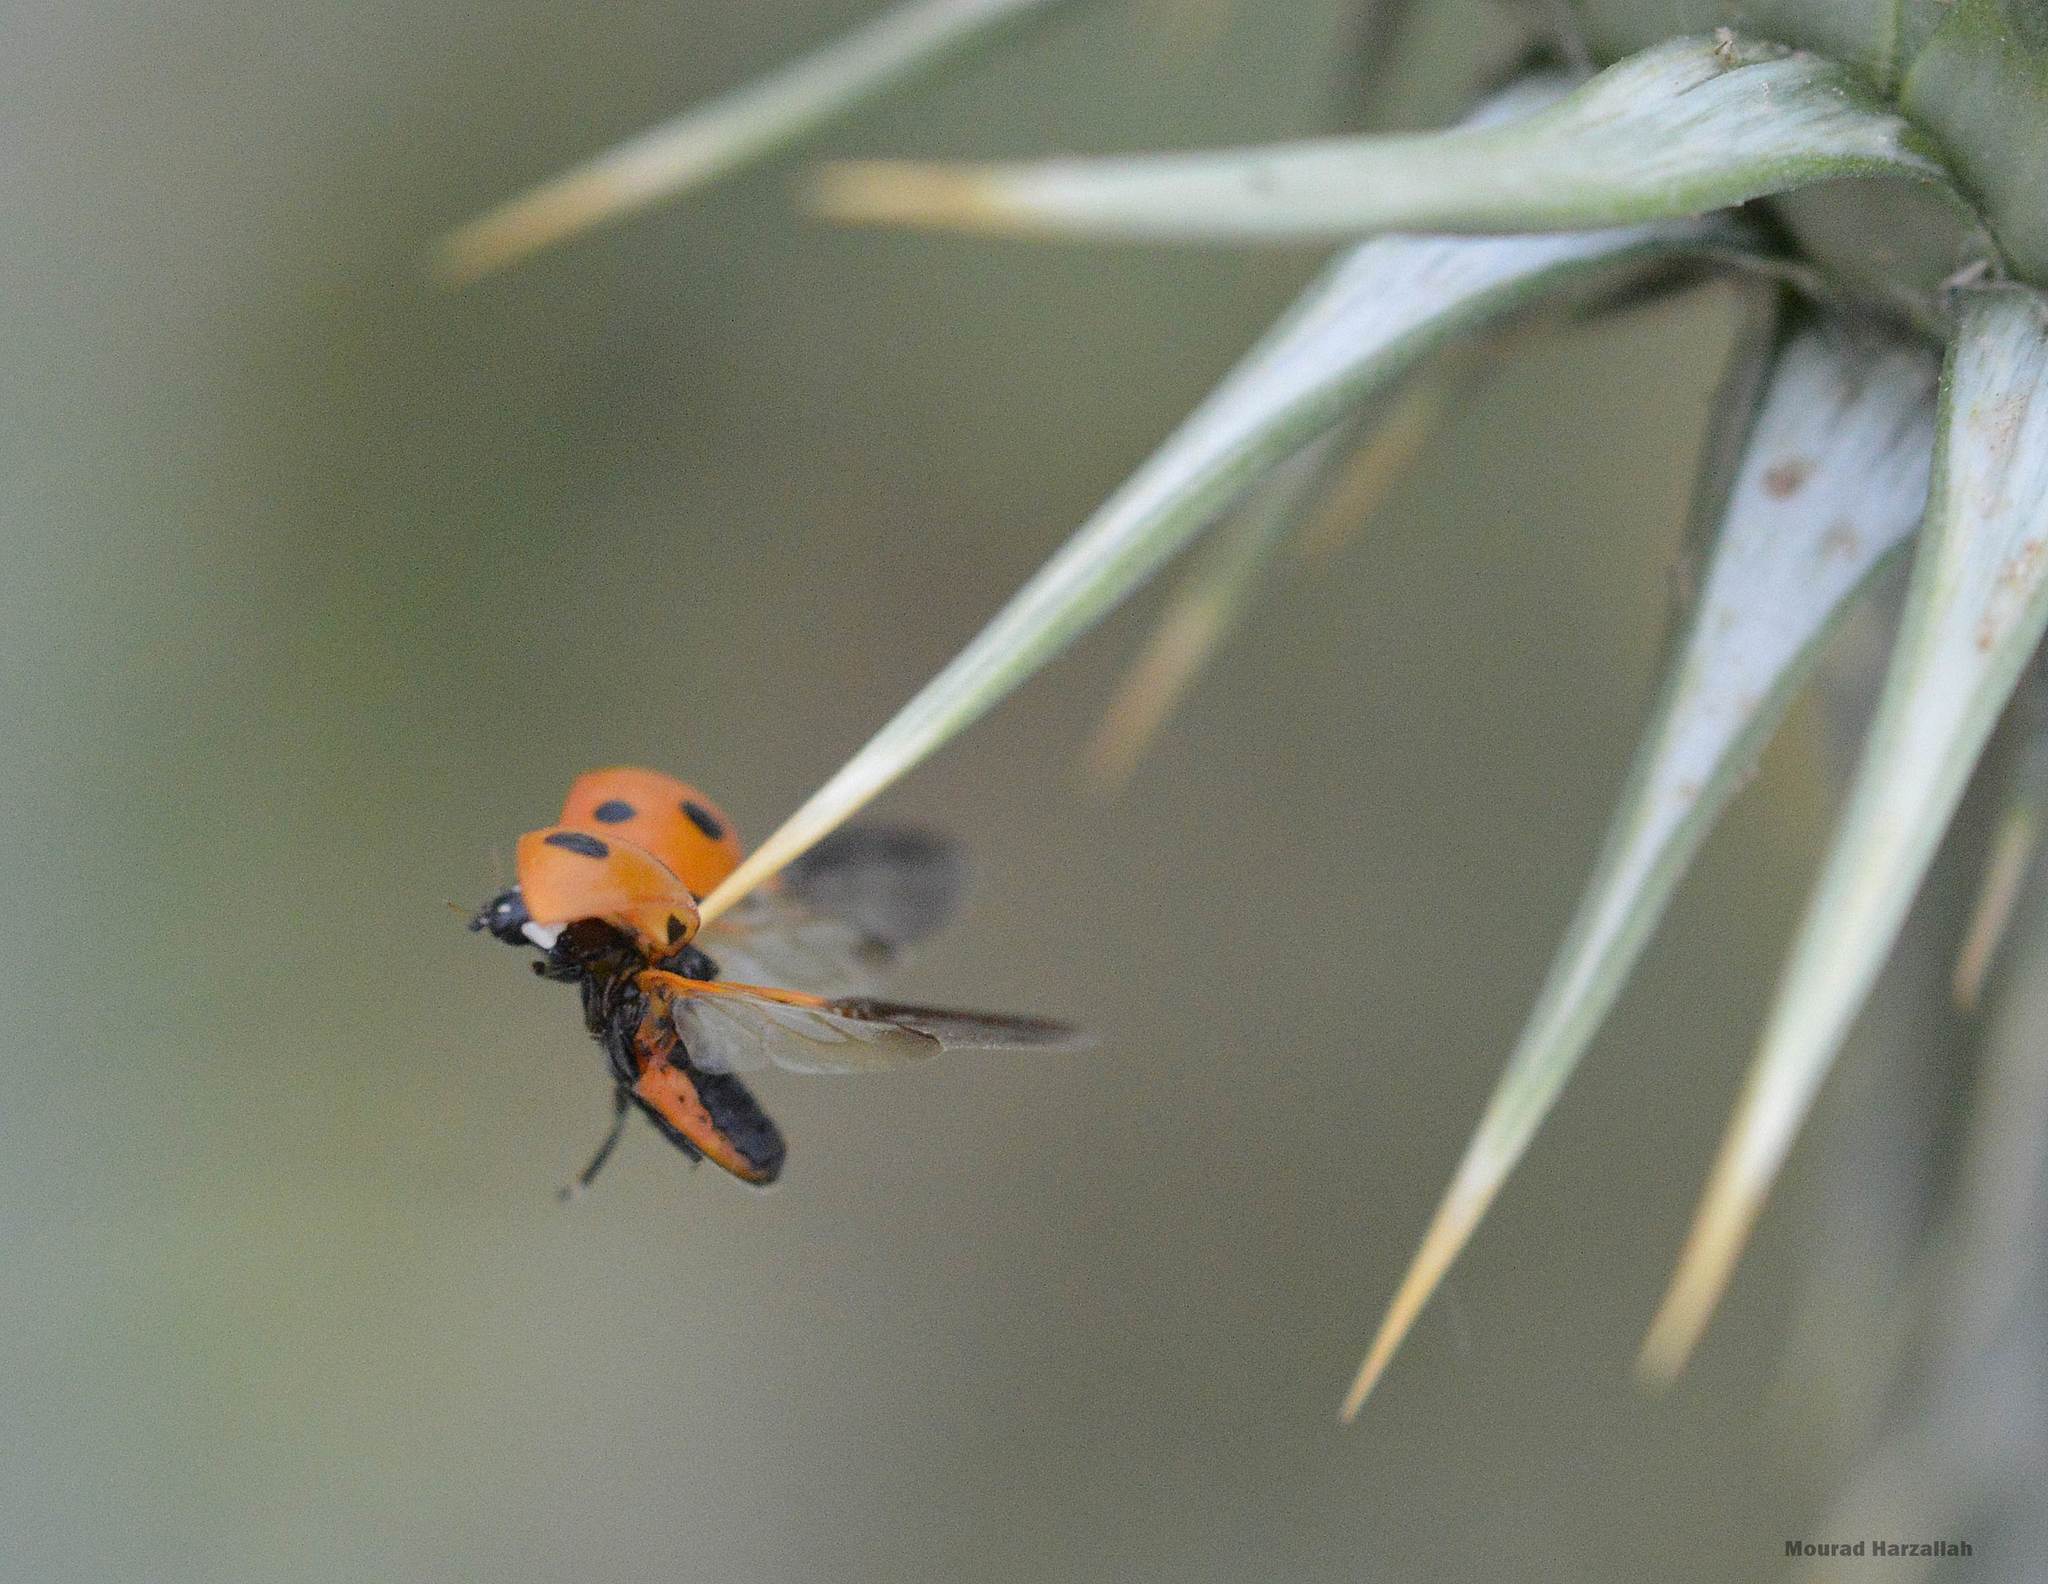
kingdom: Animalia
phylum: Arthropoda
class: Insecta
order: Coleoptera
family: Coccinellidae
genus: Coccinella
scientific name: Coccinella algerica
